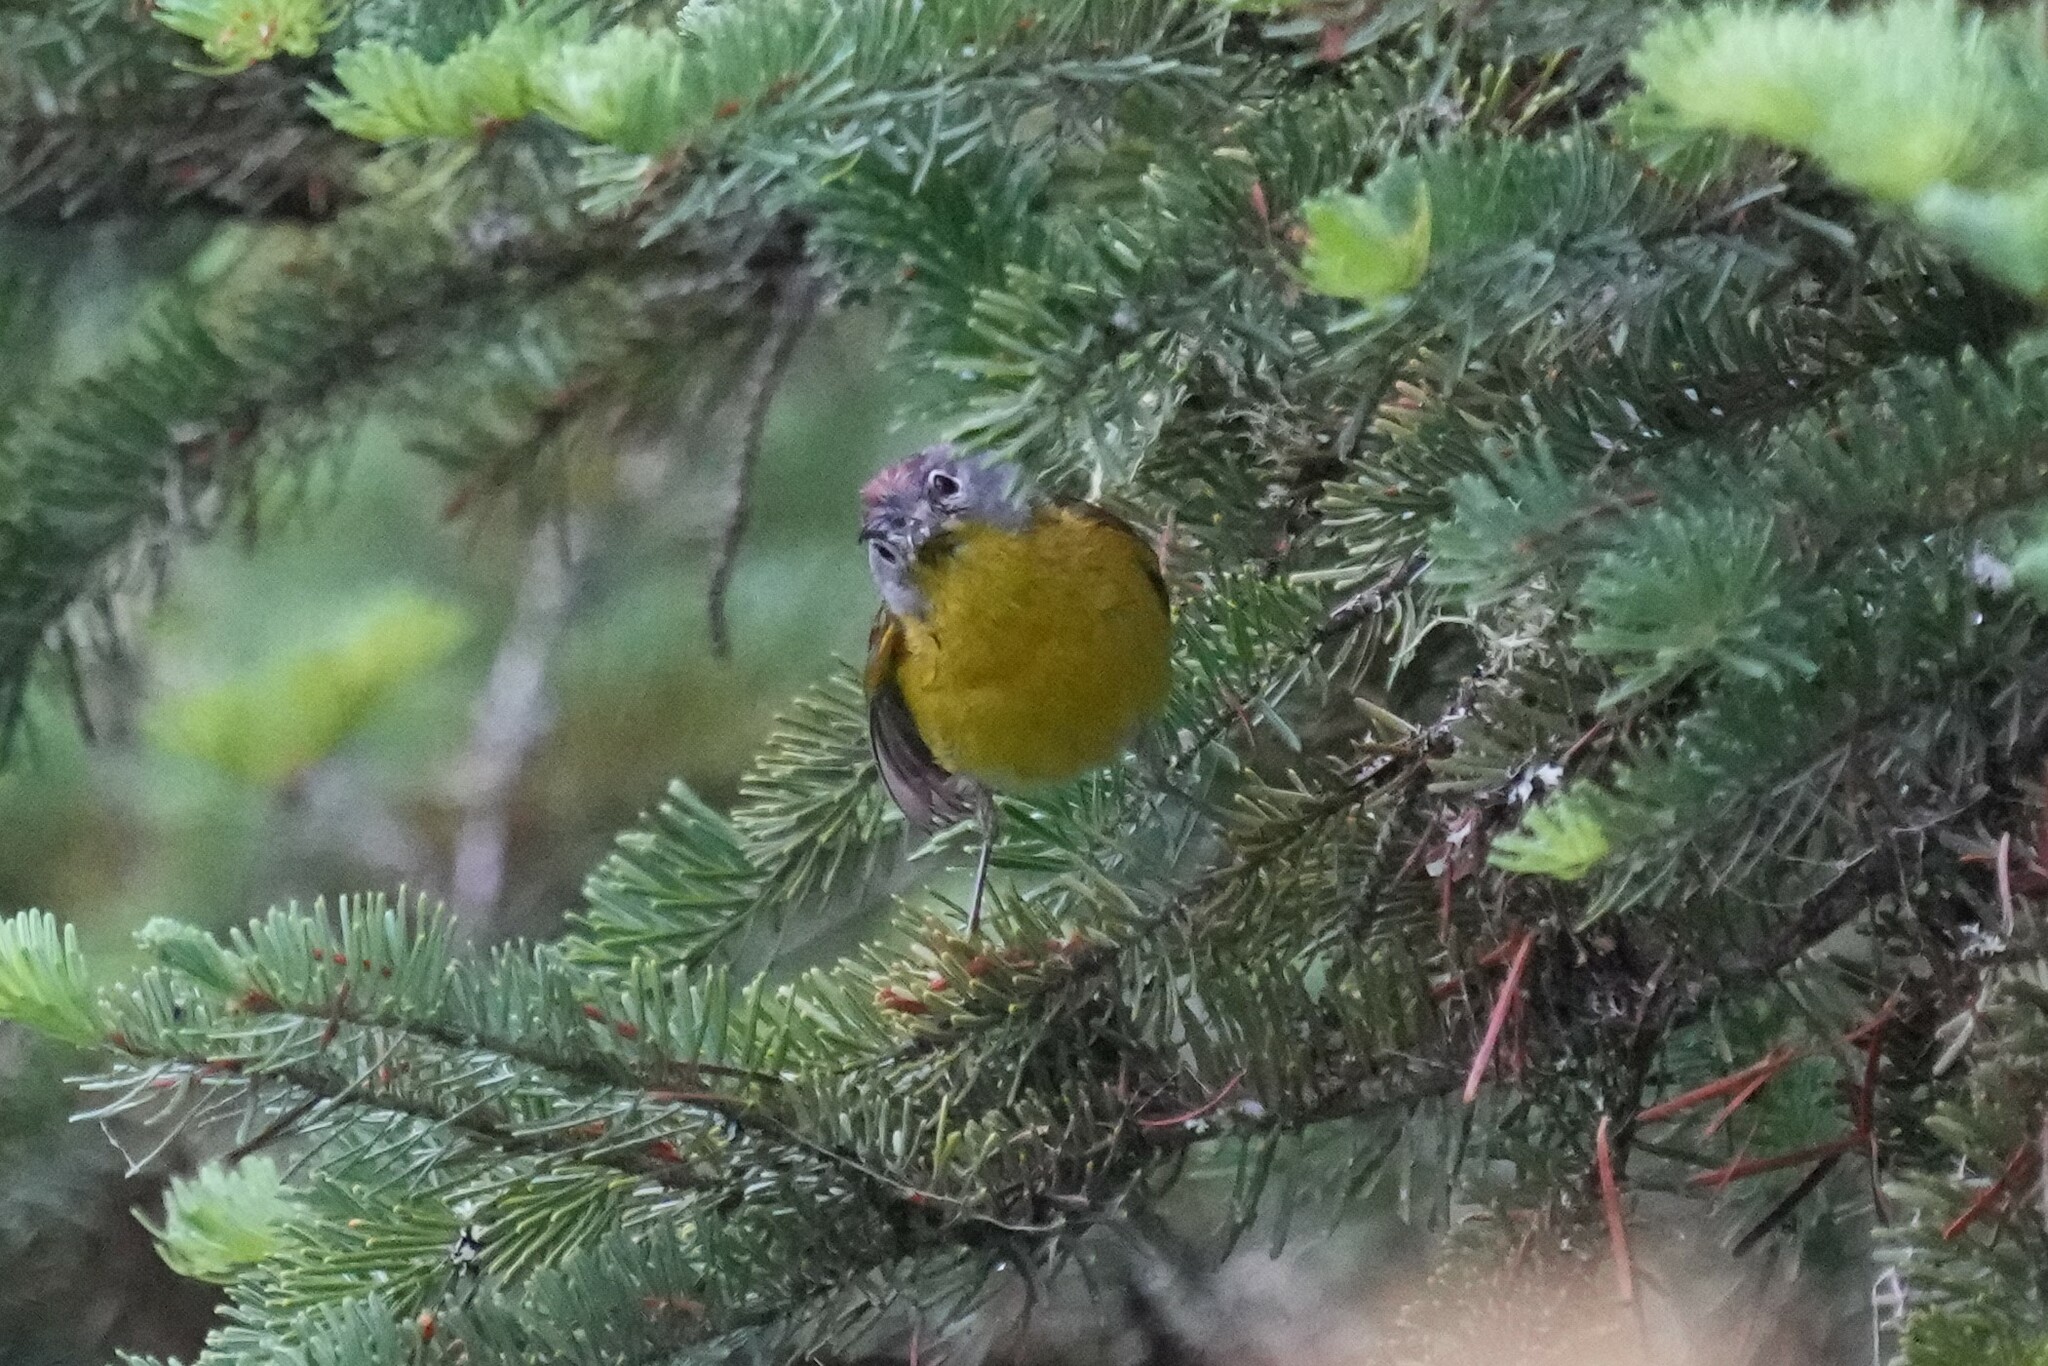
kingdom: Animalia
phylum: Chordata
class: Aves
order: Passeriformes
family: Parulidae
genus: Leiothlypis
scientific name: Leiothlypis ruficapilla
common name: Nashville warbler
